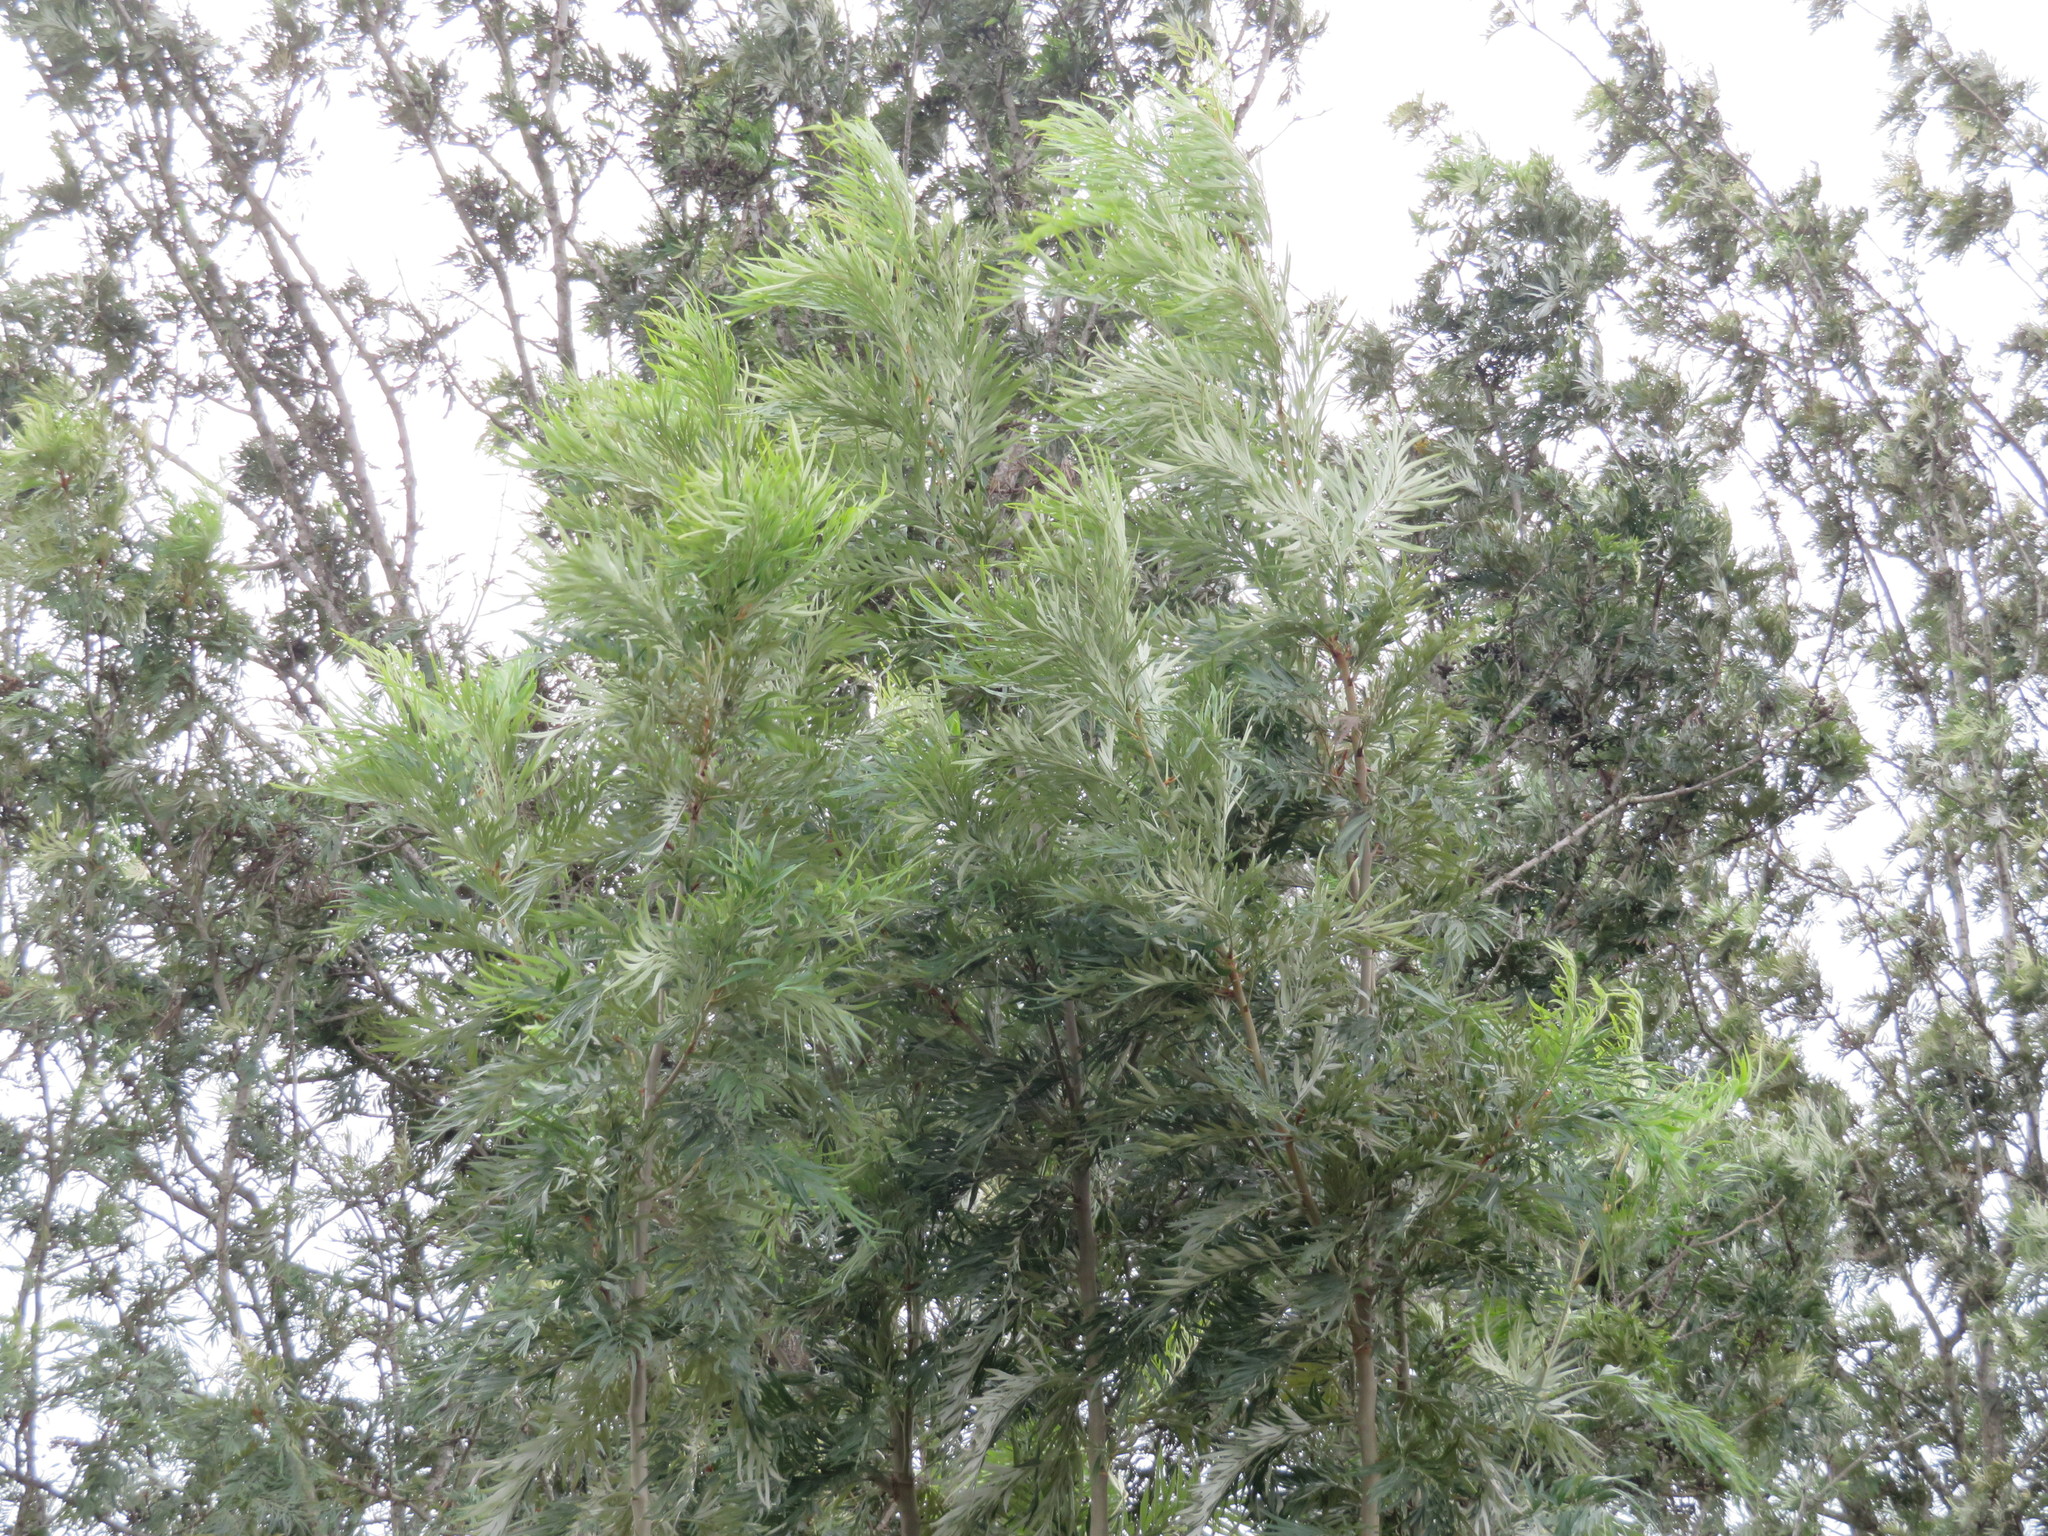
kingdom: Plantae
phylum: Tracheophyta
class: Magnoliopsida
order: Proteales
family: Proteaceae
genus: Grevillea
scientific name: Grevillea robusta
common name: Silkoak
